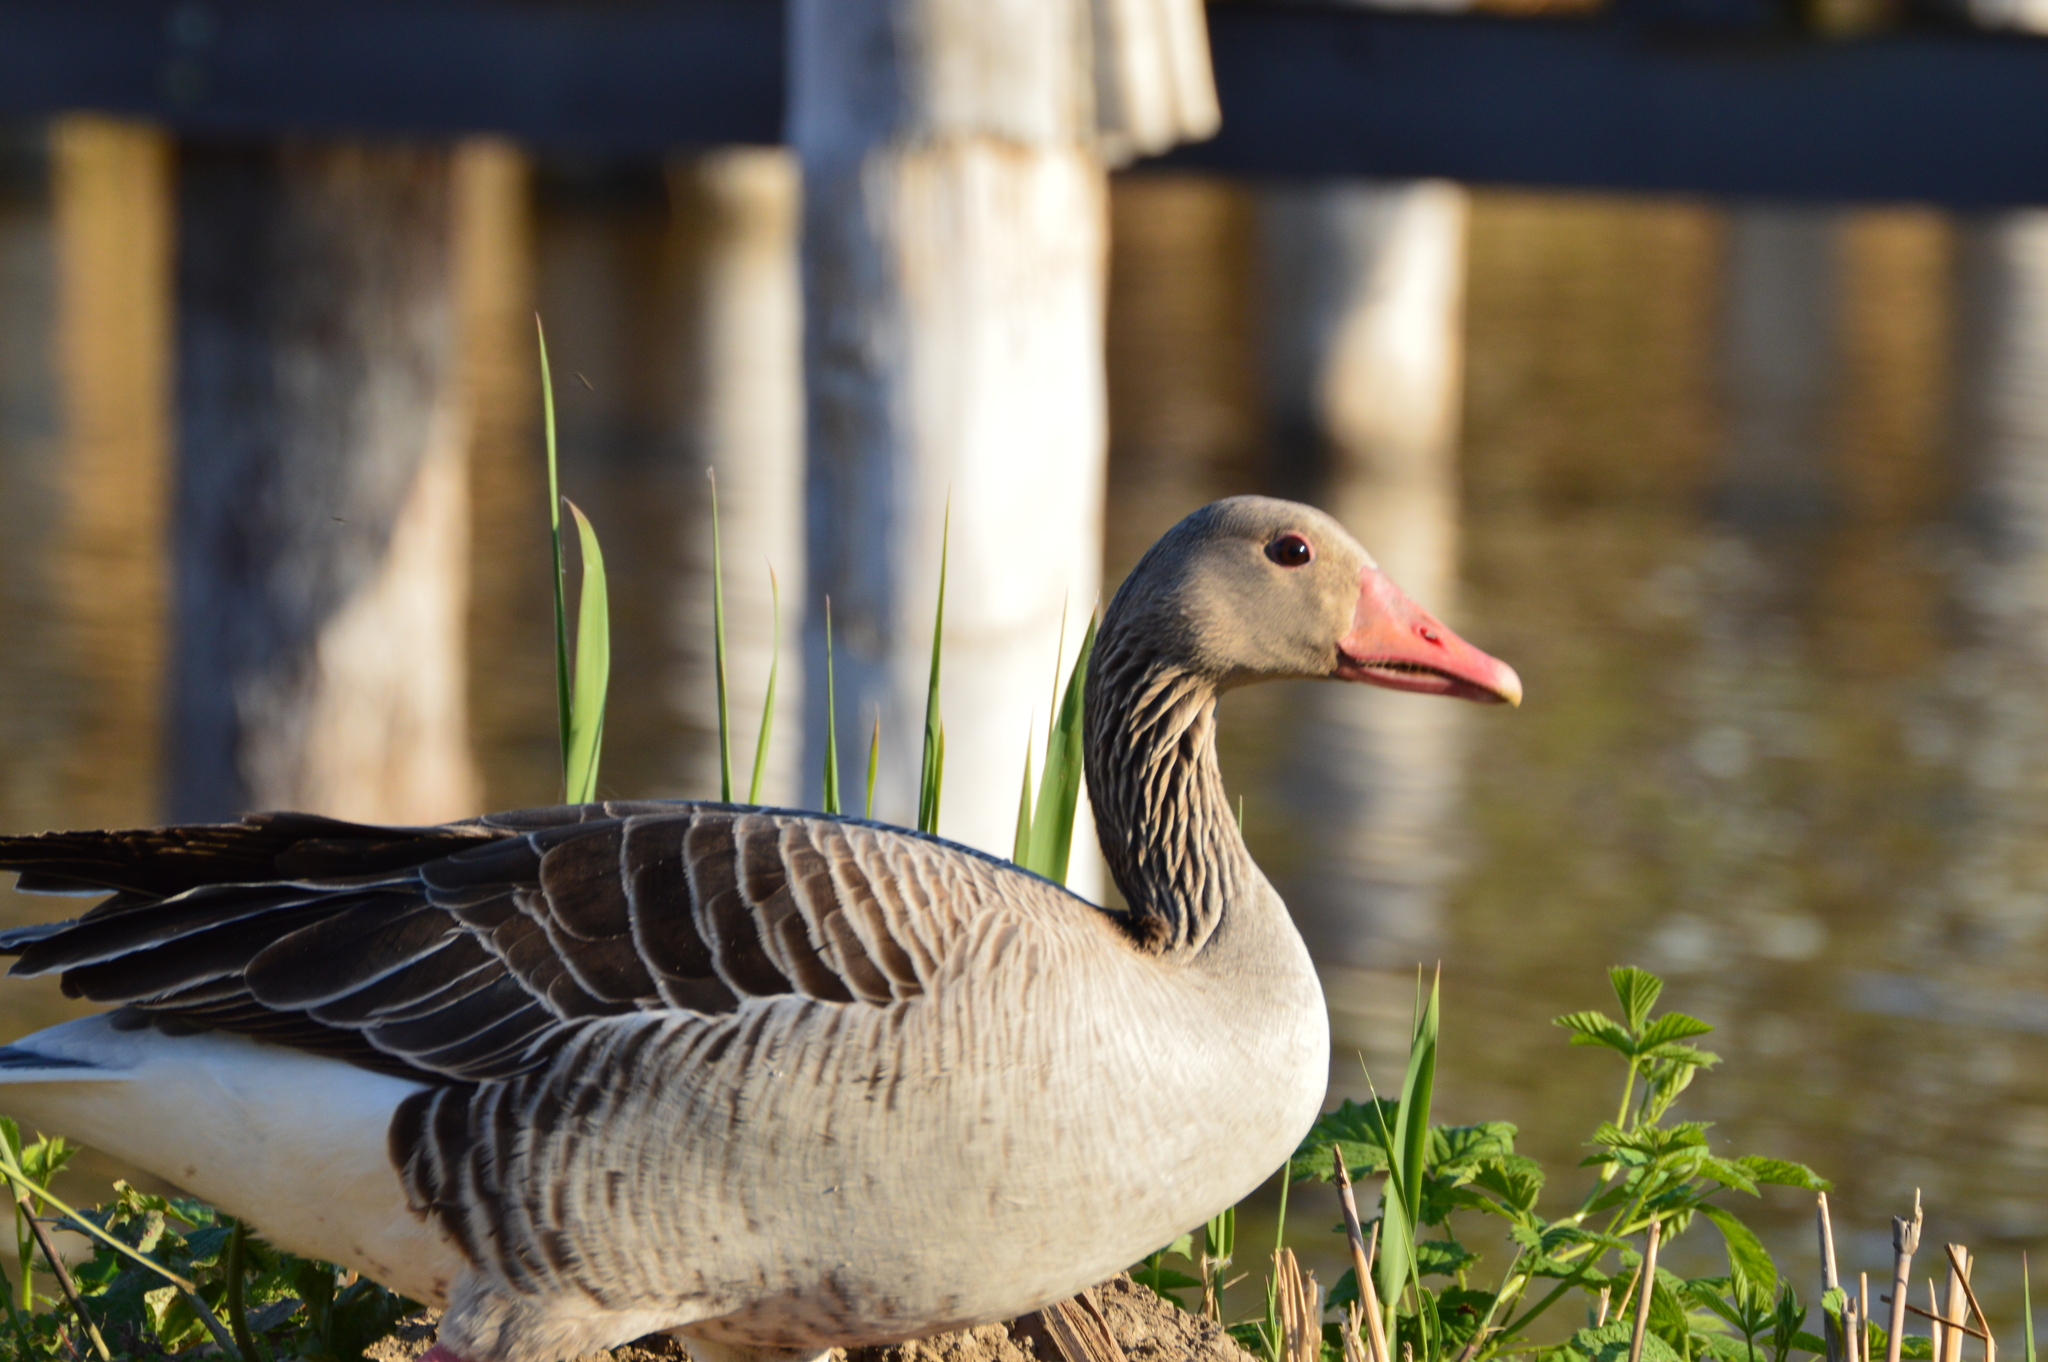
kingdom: Animalia
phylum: Chordata
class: Aves
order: Anseriformes
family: Anatidae
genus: Anser
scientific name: Anser anser
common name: Greylag goose
